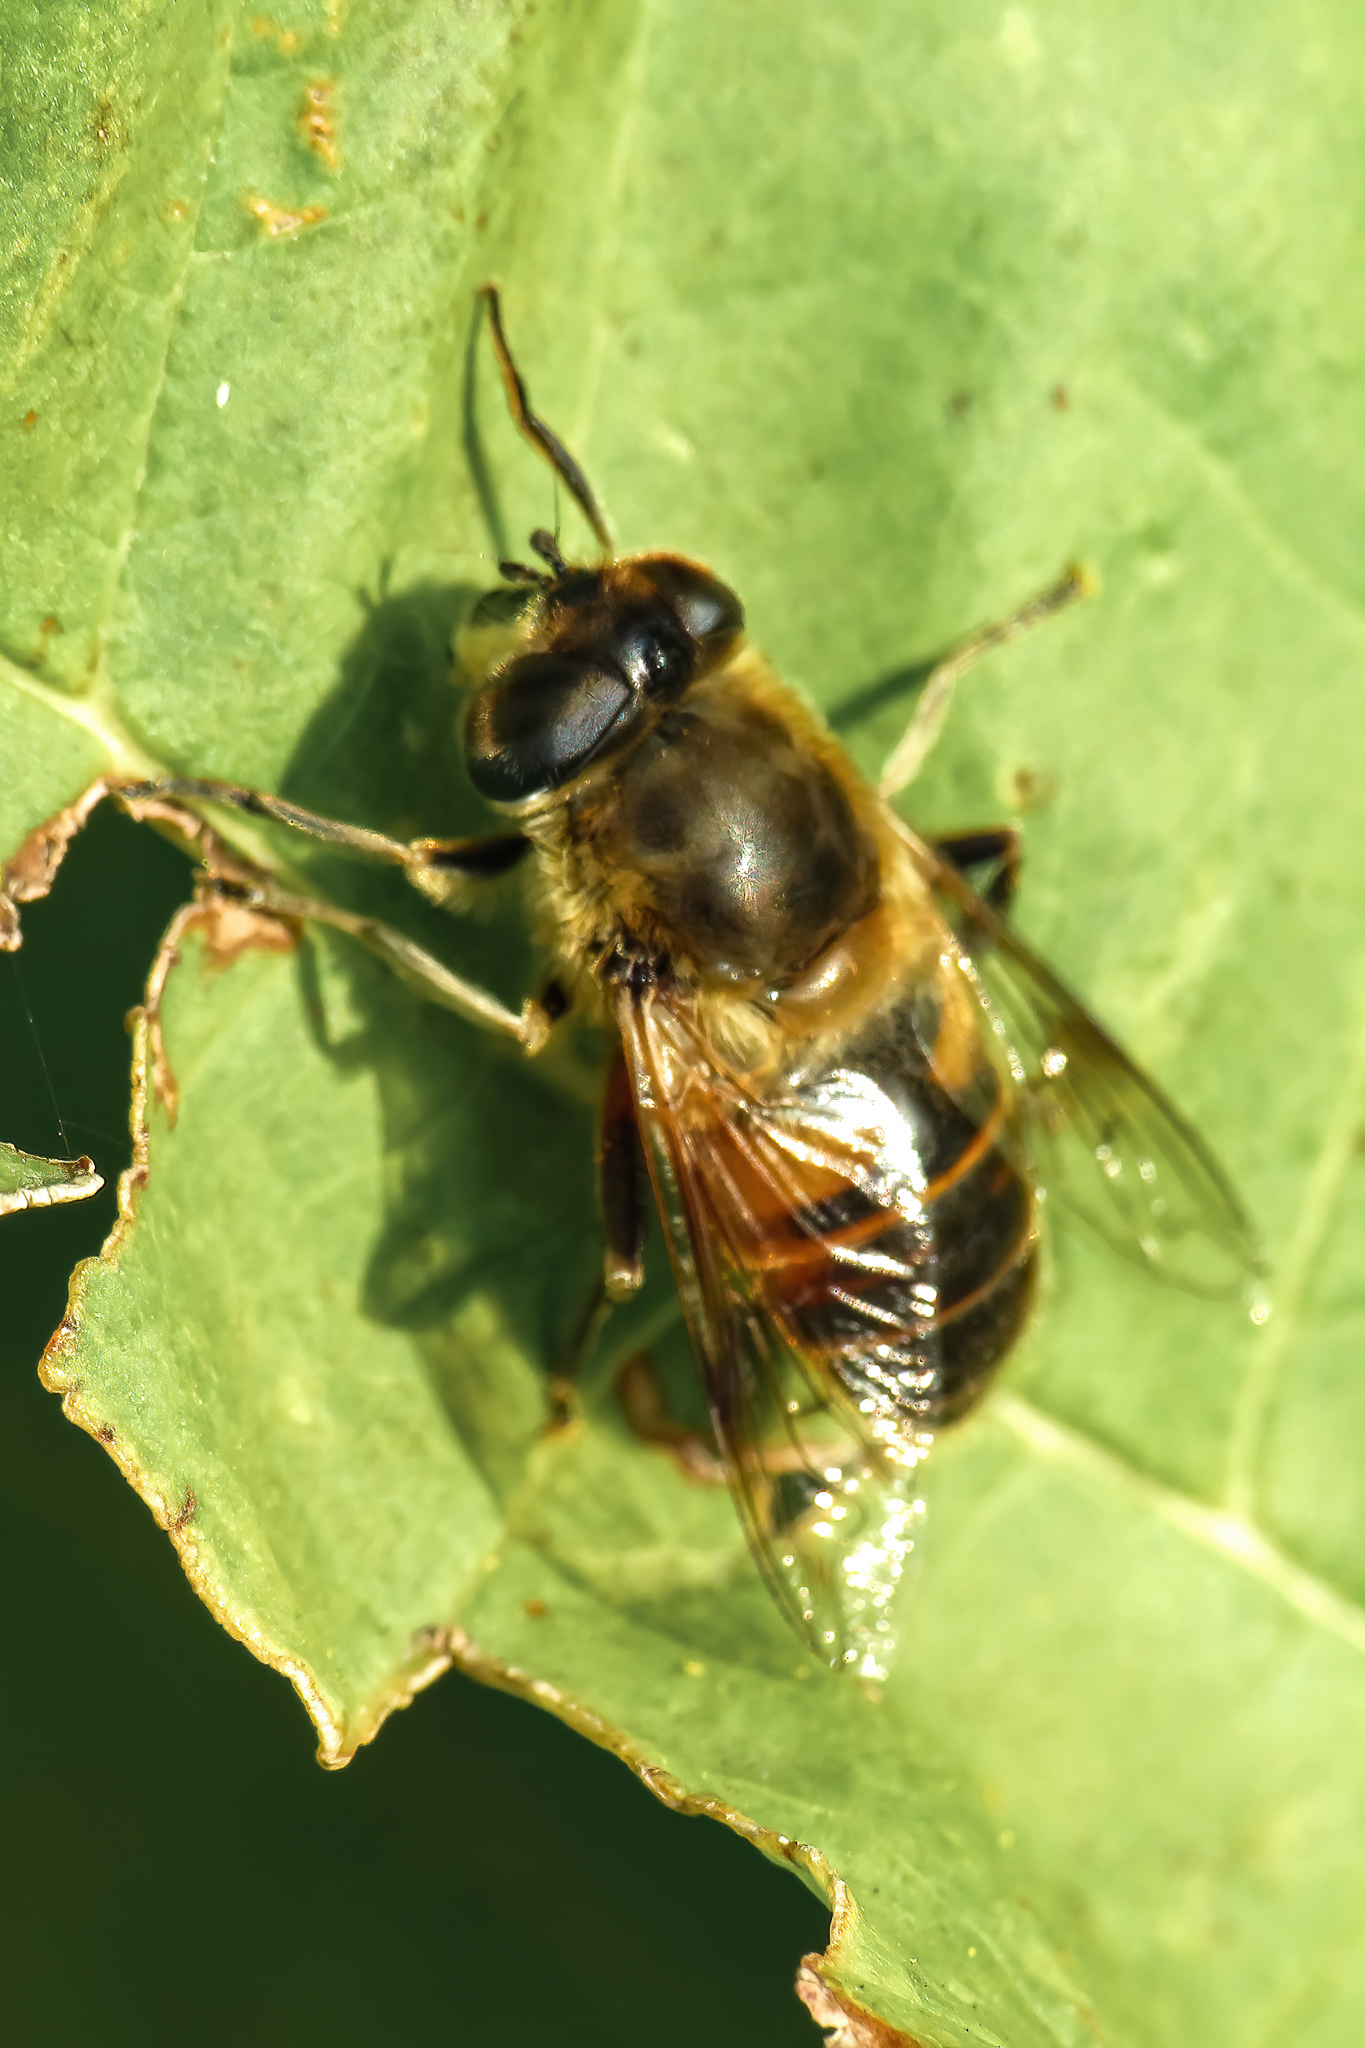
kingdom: Animalia
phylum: Arthropoda
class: Insecta
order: Diptera
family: Syrphidae
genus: Eristalis
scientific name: Eristalis tenax
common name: Drone fly
